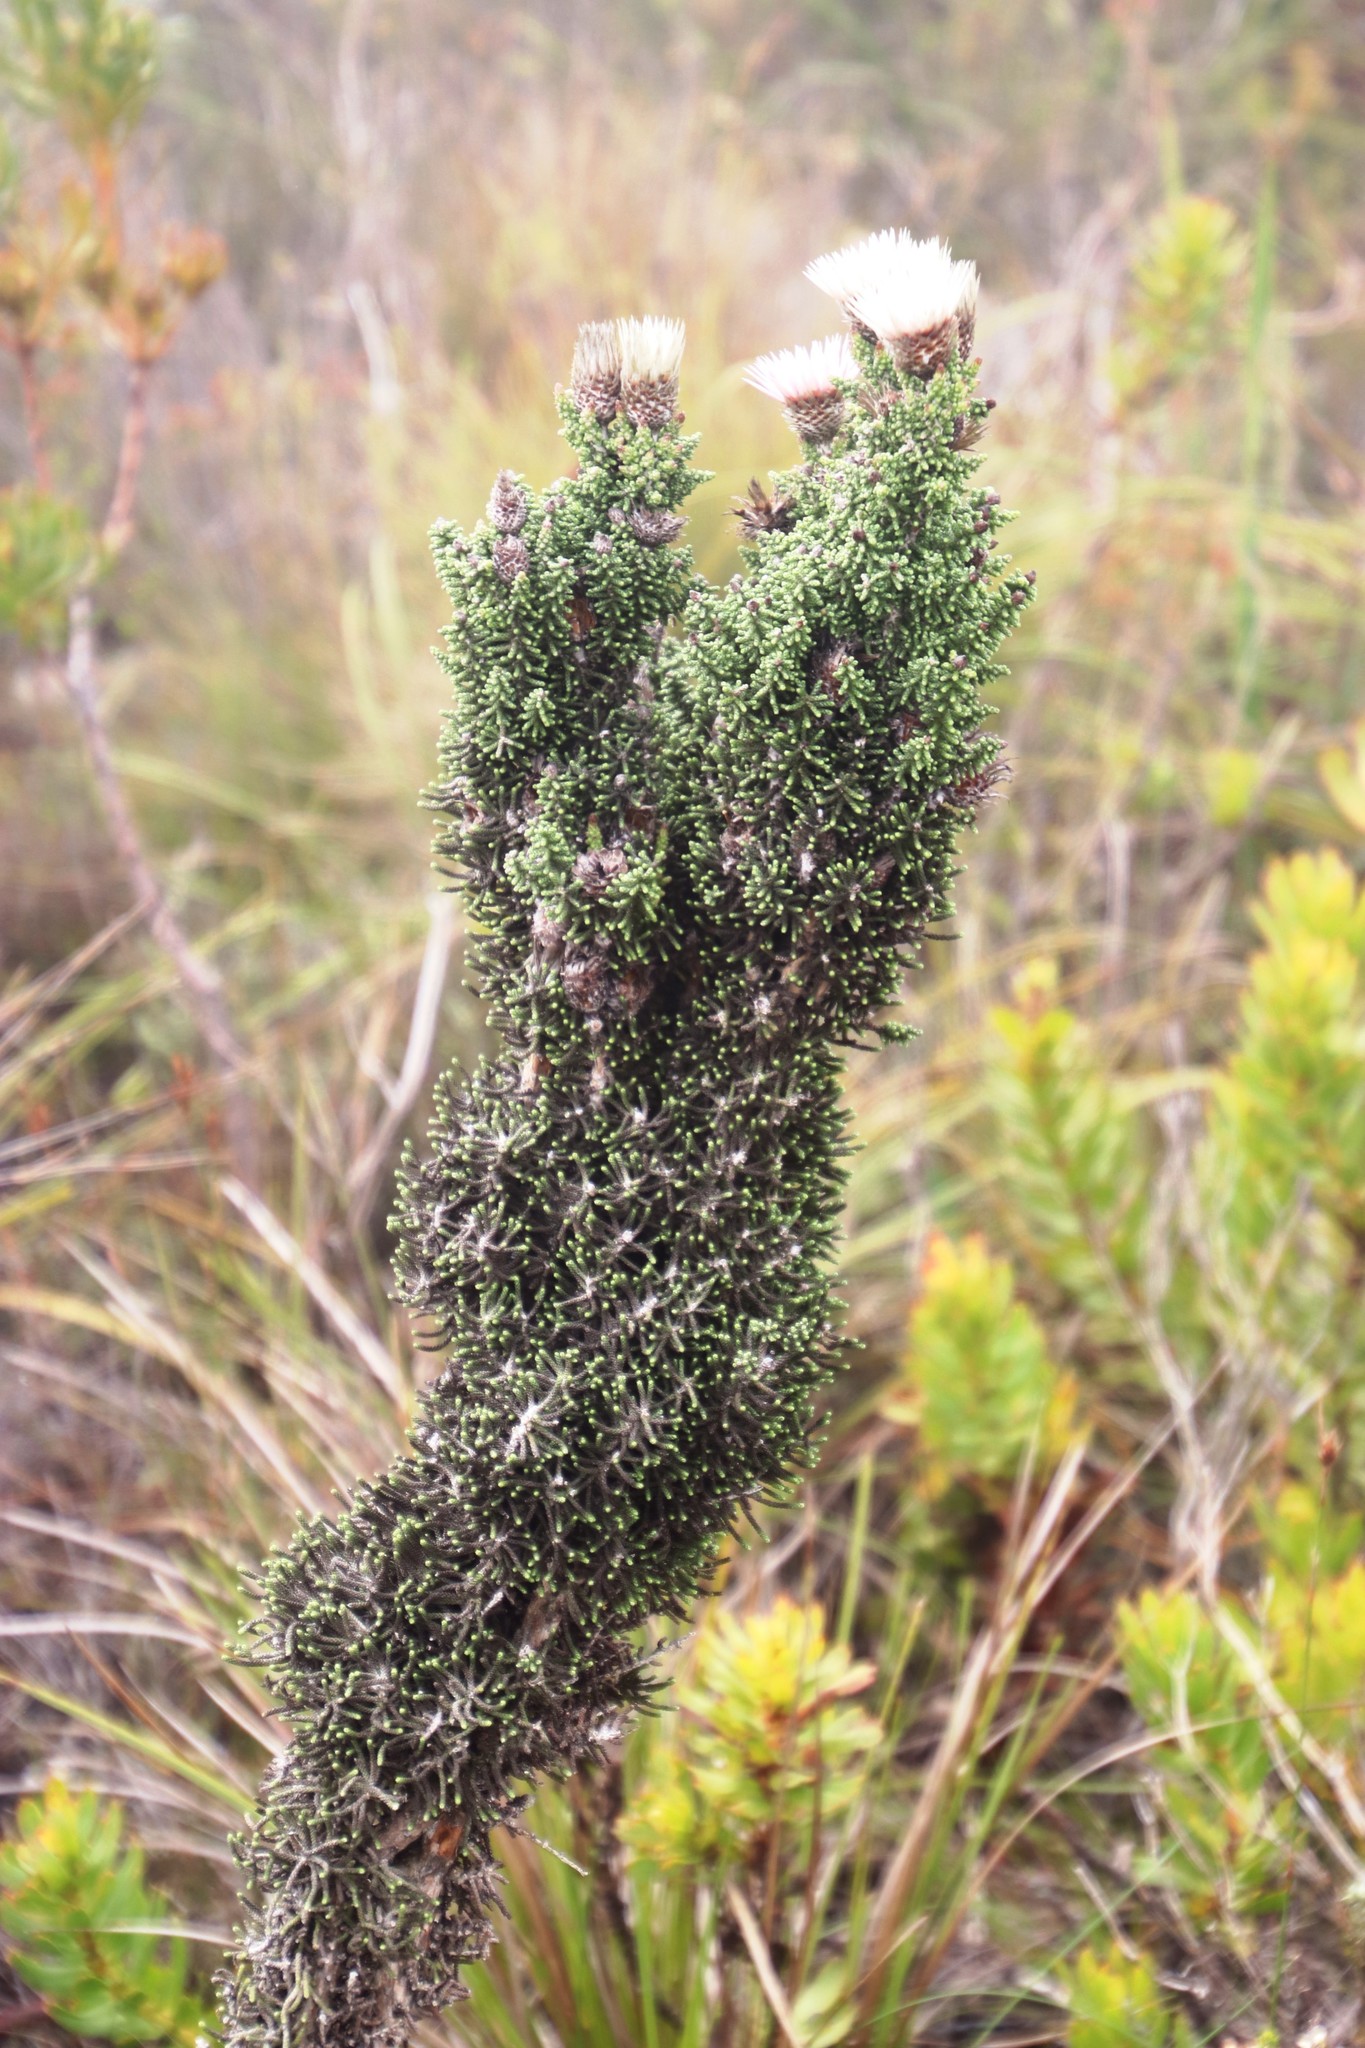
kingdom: Plantae
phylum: Tracheophyta
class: Magnoliopsida
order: Asterales
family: Asteraceae
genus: Phaenocoma
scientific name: Phaenocoma prolifera
